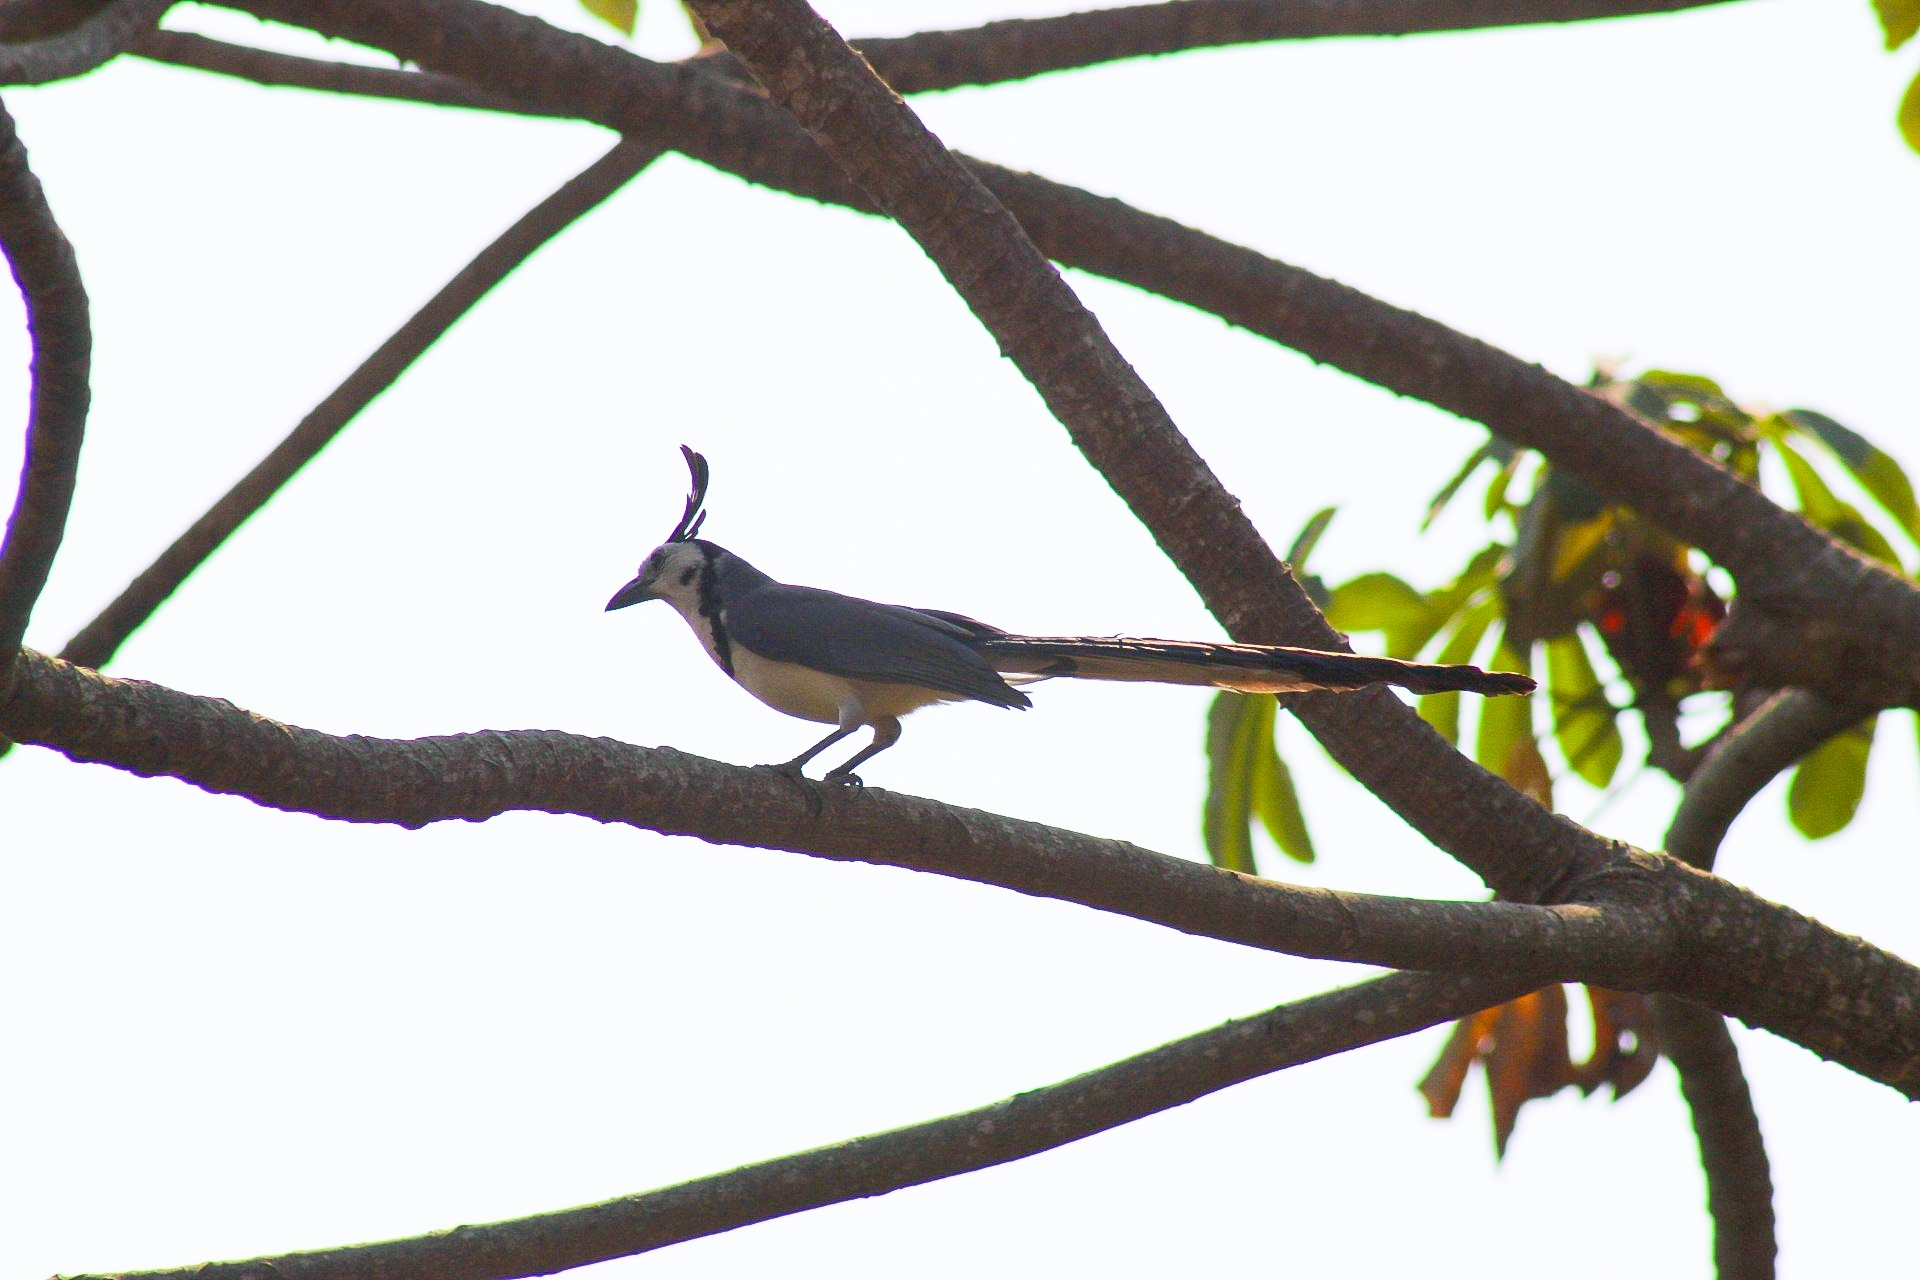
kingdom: Animalia
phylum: Chordata
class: Aves
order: Passeriformes
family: Corvidae
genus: Calocitta
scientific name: Calocitta formosa
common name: White-throated magpie-jay
